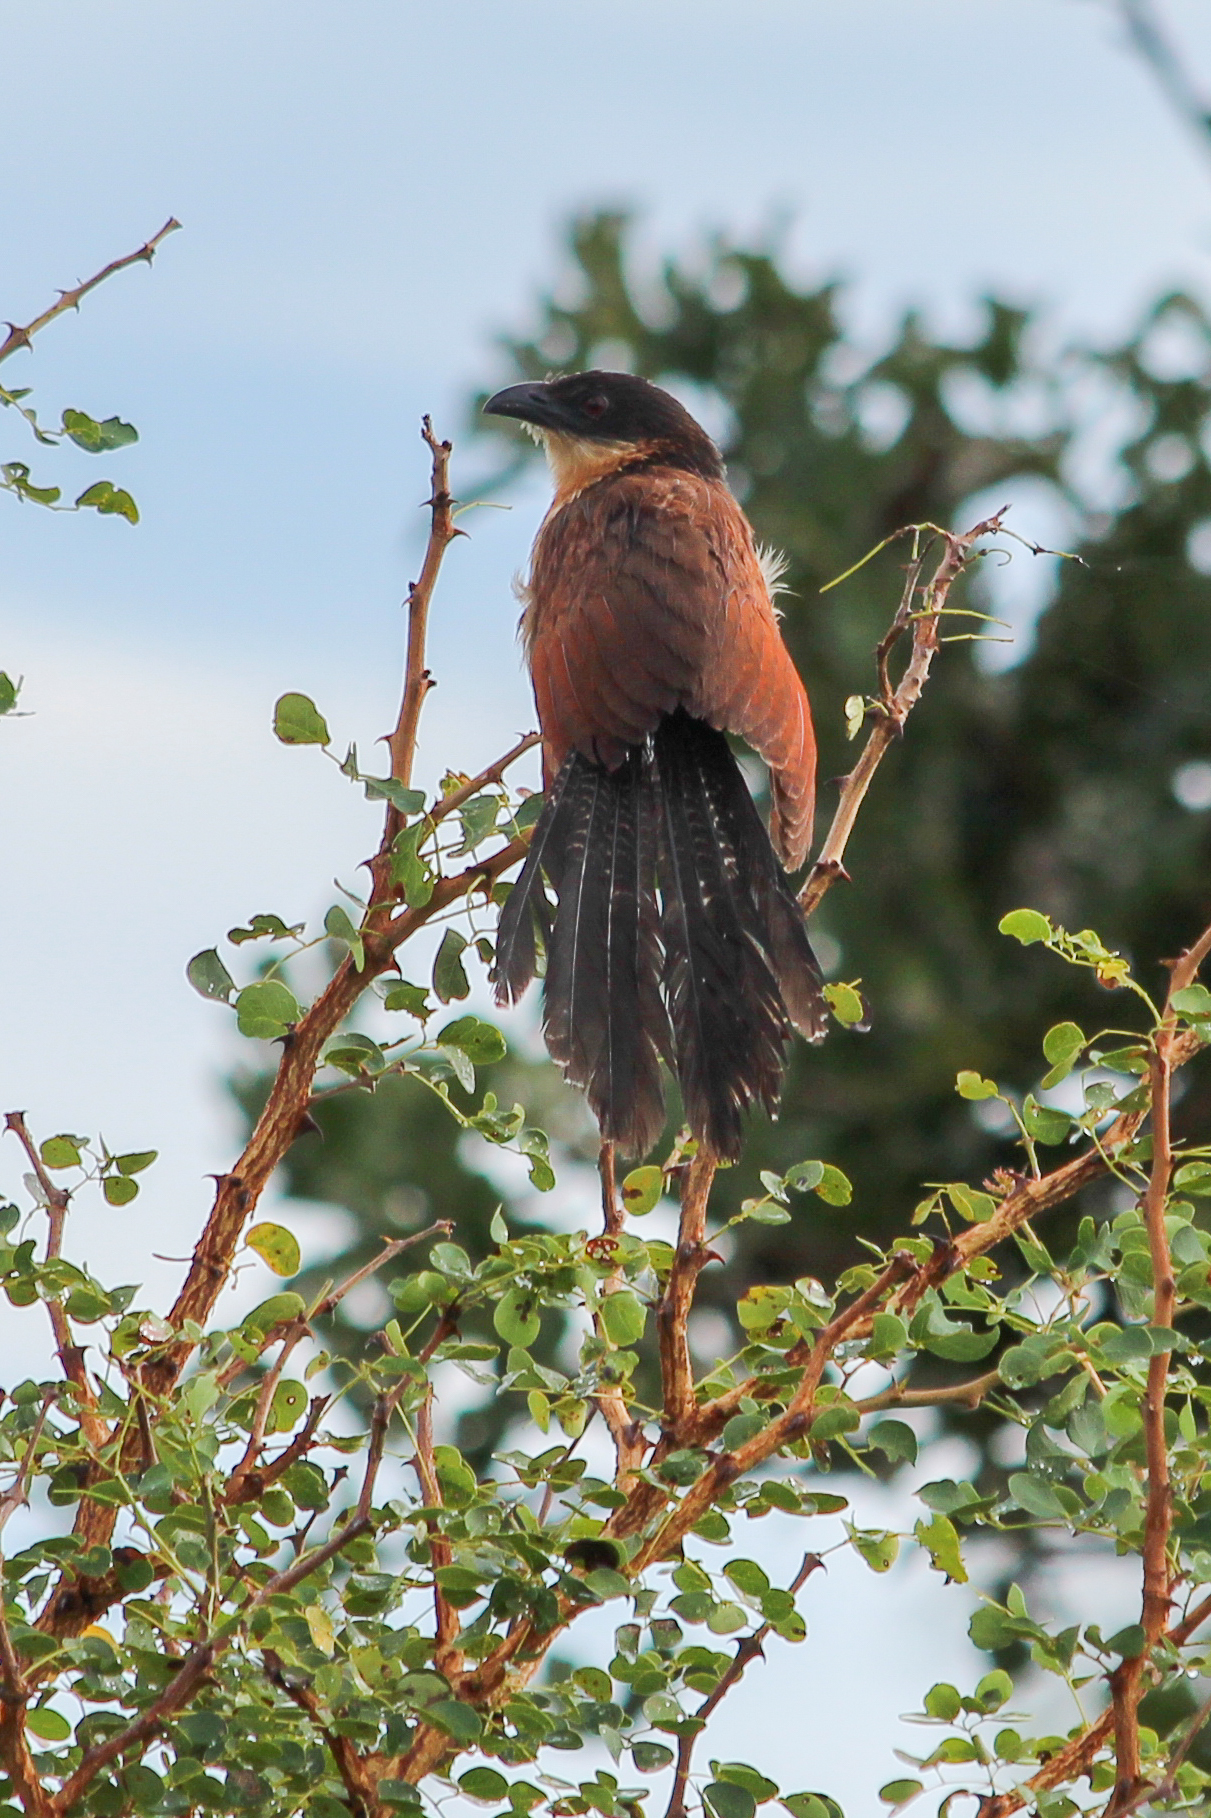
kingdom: Animalia
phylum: Chordata
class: Aves
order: Cuculiformes
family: Cuculidae
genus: Centropus
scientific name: Centropus superciliosus
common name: White-browed coucal
